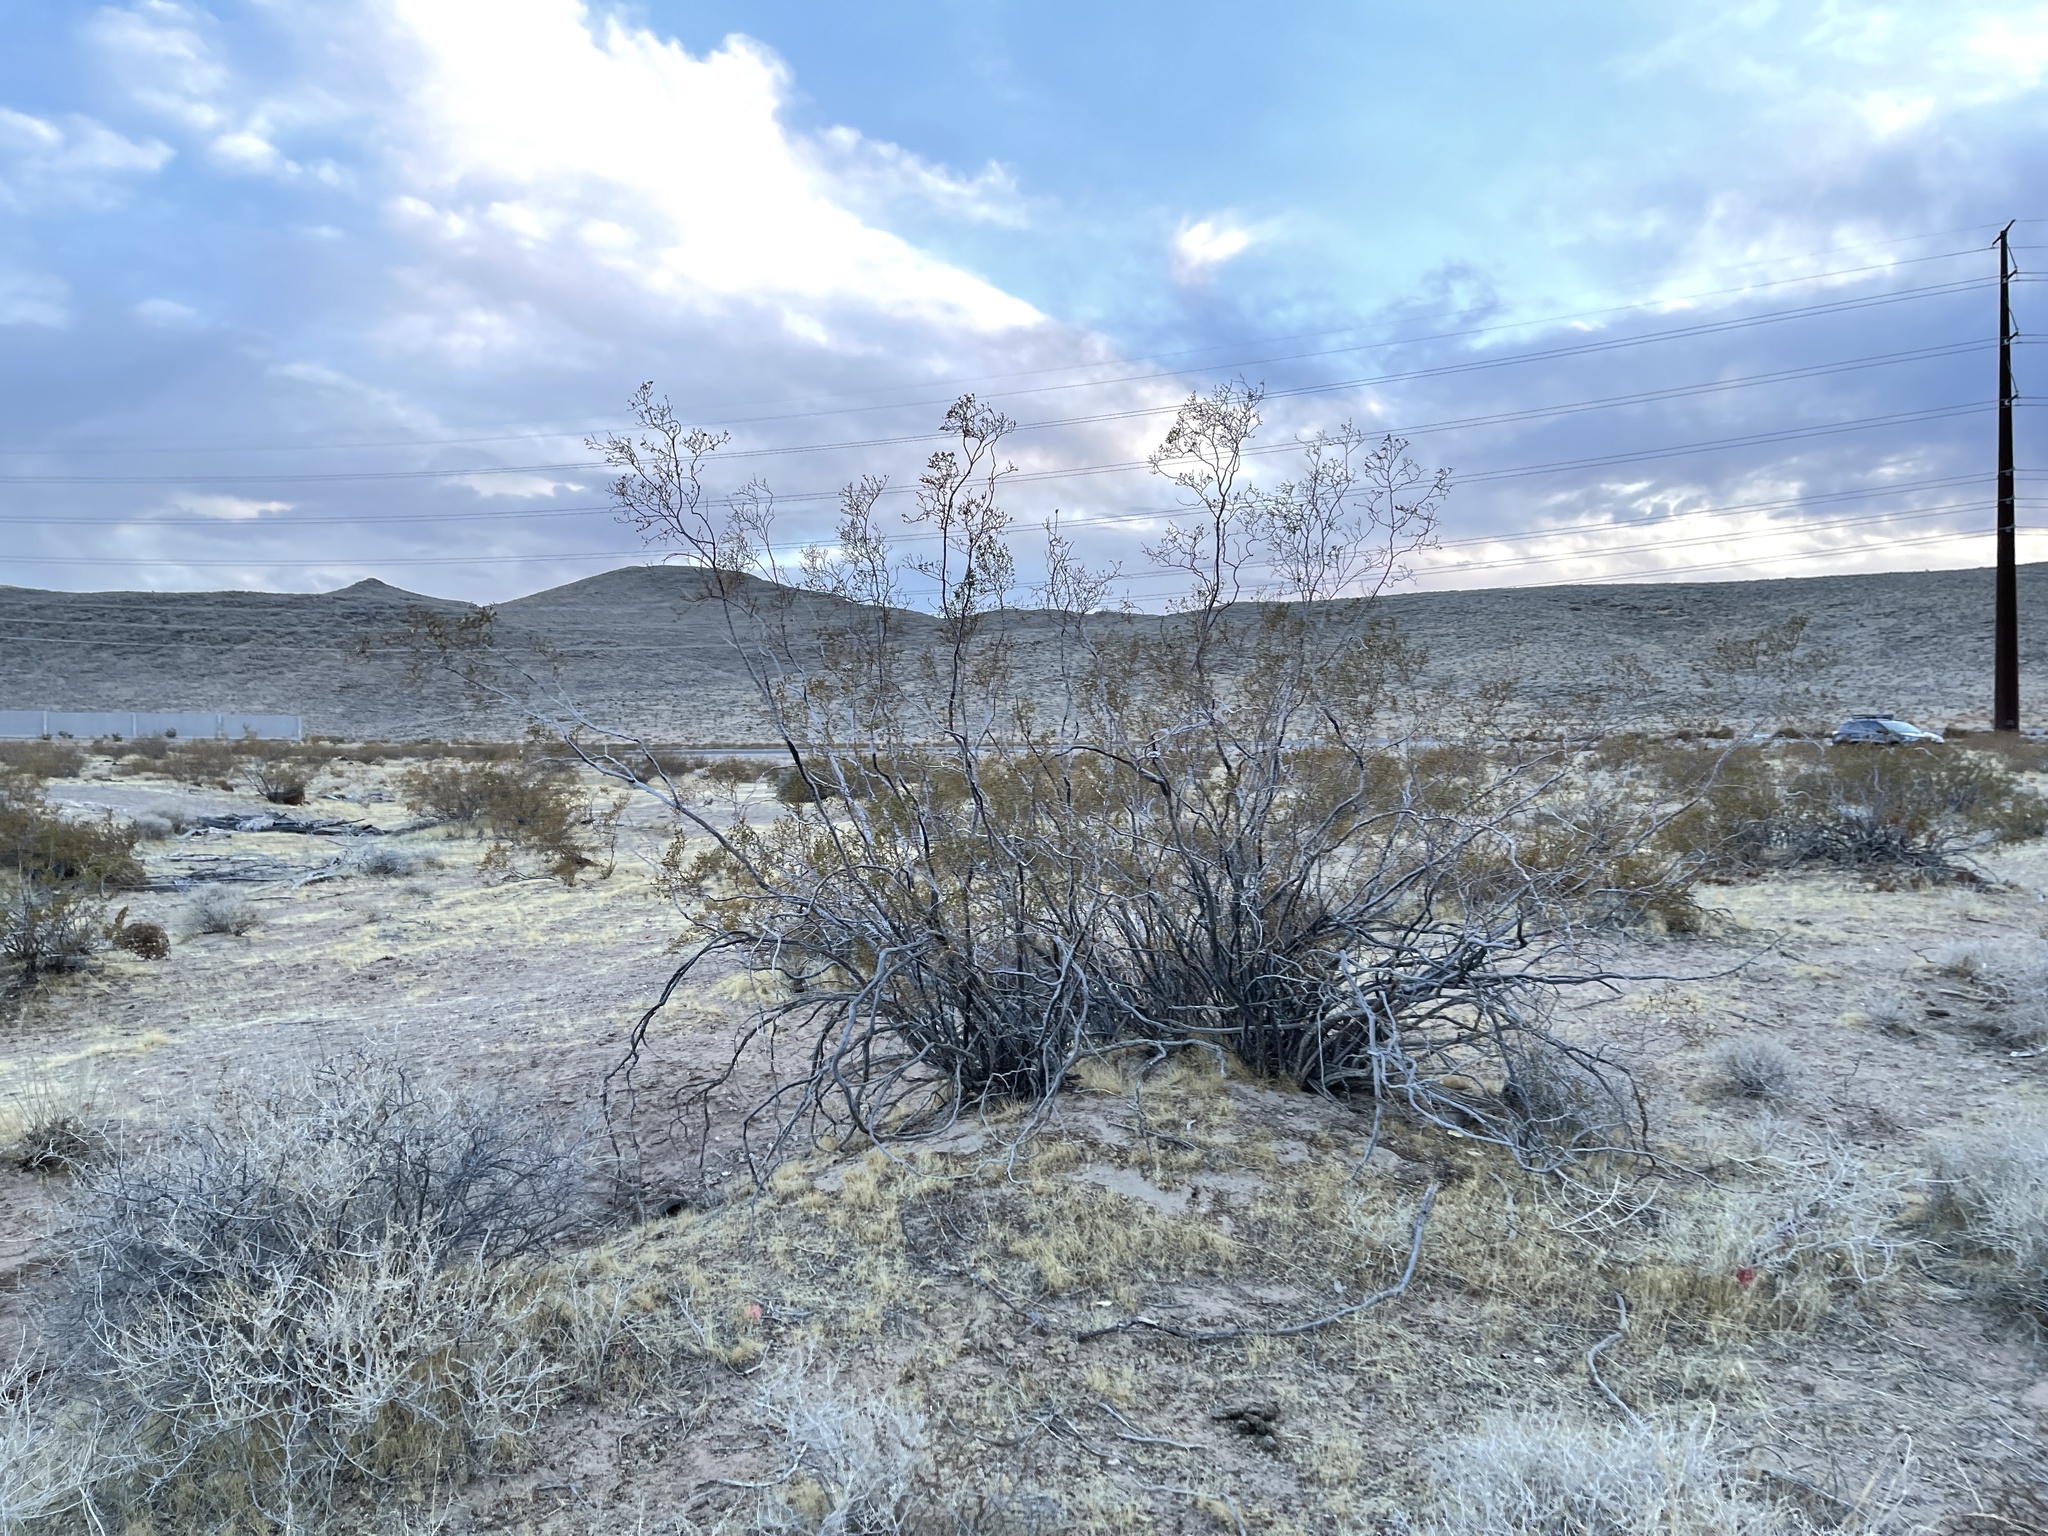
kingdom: Plantae
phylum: Tracheophyta
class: Magnoliopsida
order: Zygophyllales
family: Zygophyllaceae
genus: Larrea
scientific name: Larrea tridentata
